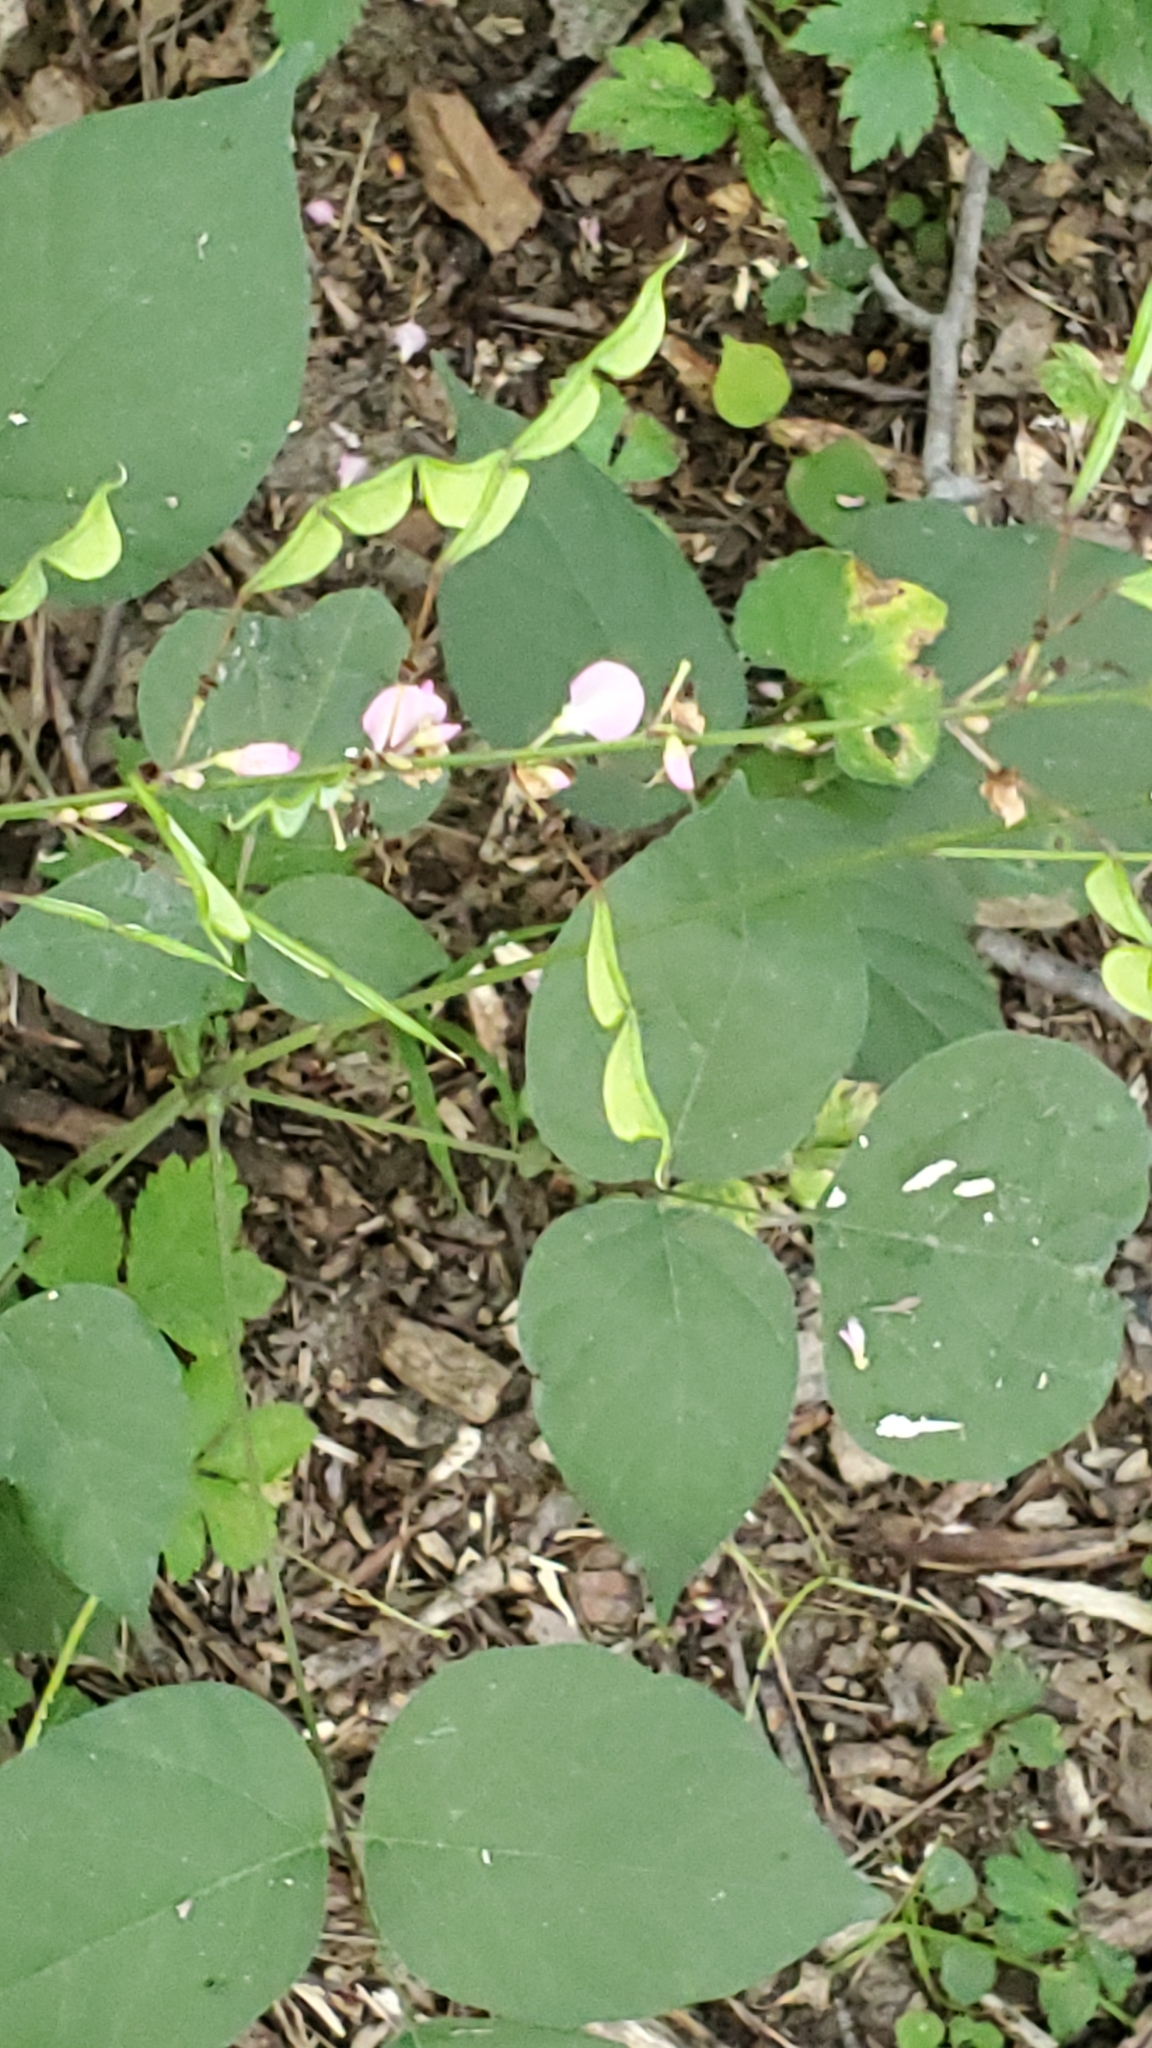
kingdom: Plantae
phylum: Tracheophyta
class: Magnoliopsida
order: Fabales
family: Fabaceae
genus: Hylodesmum
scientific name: Hylodesmum glutinosum
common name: Clustered-leaved tick-trefoil
